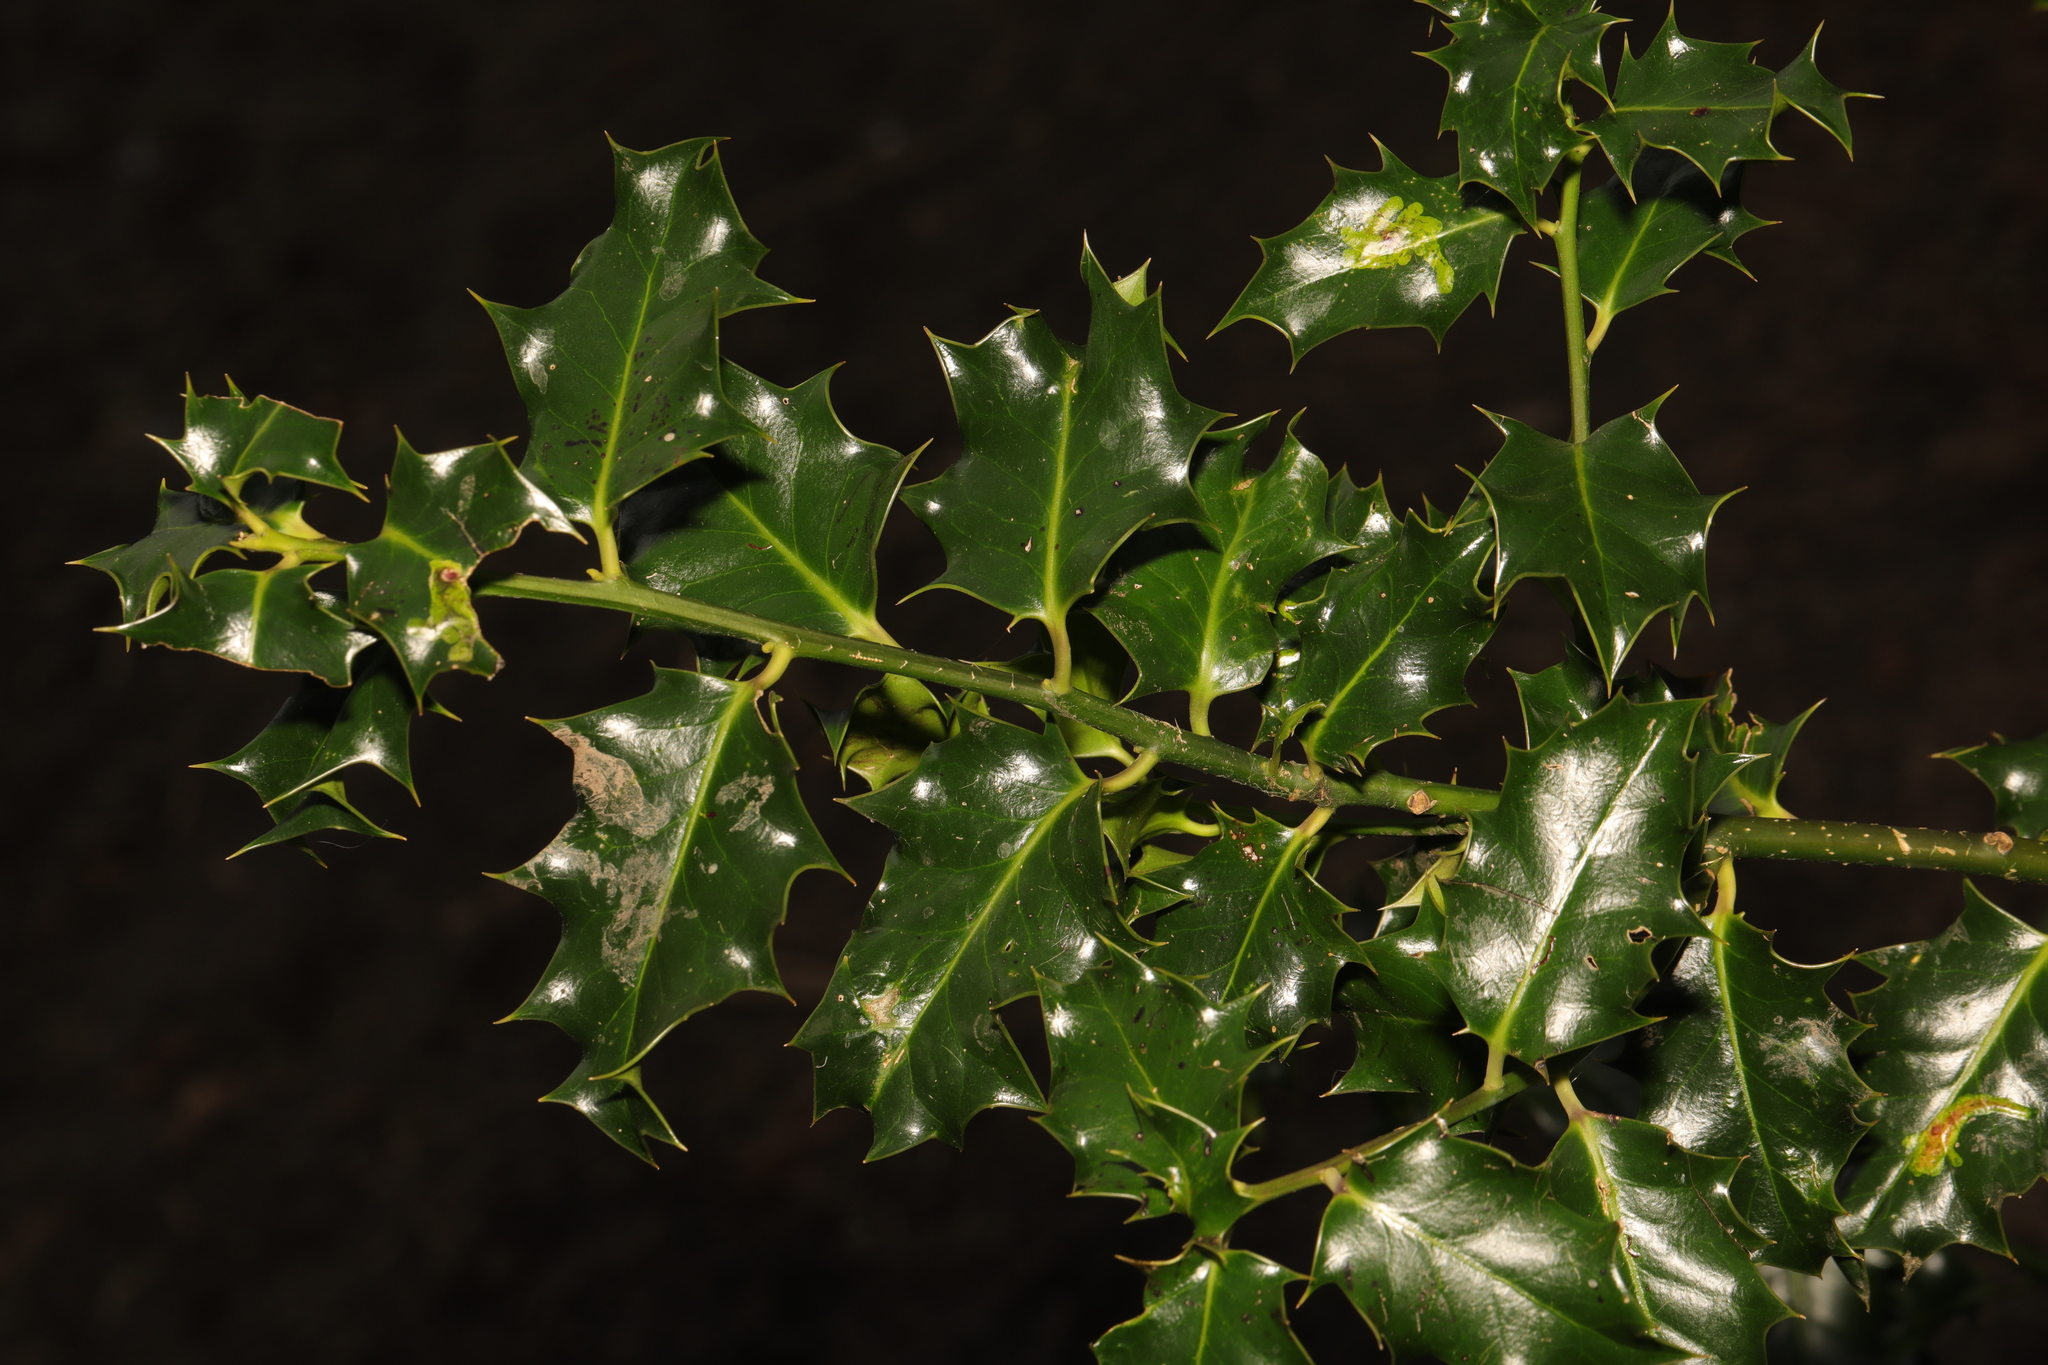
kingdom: Plantae
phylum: Tracheophyta
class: Magnoliopsida
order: Aquifoliales
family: Aquifoliaceae
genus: Ilex
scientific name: Ilex aquifolium
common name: English holly
